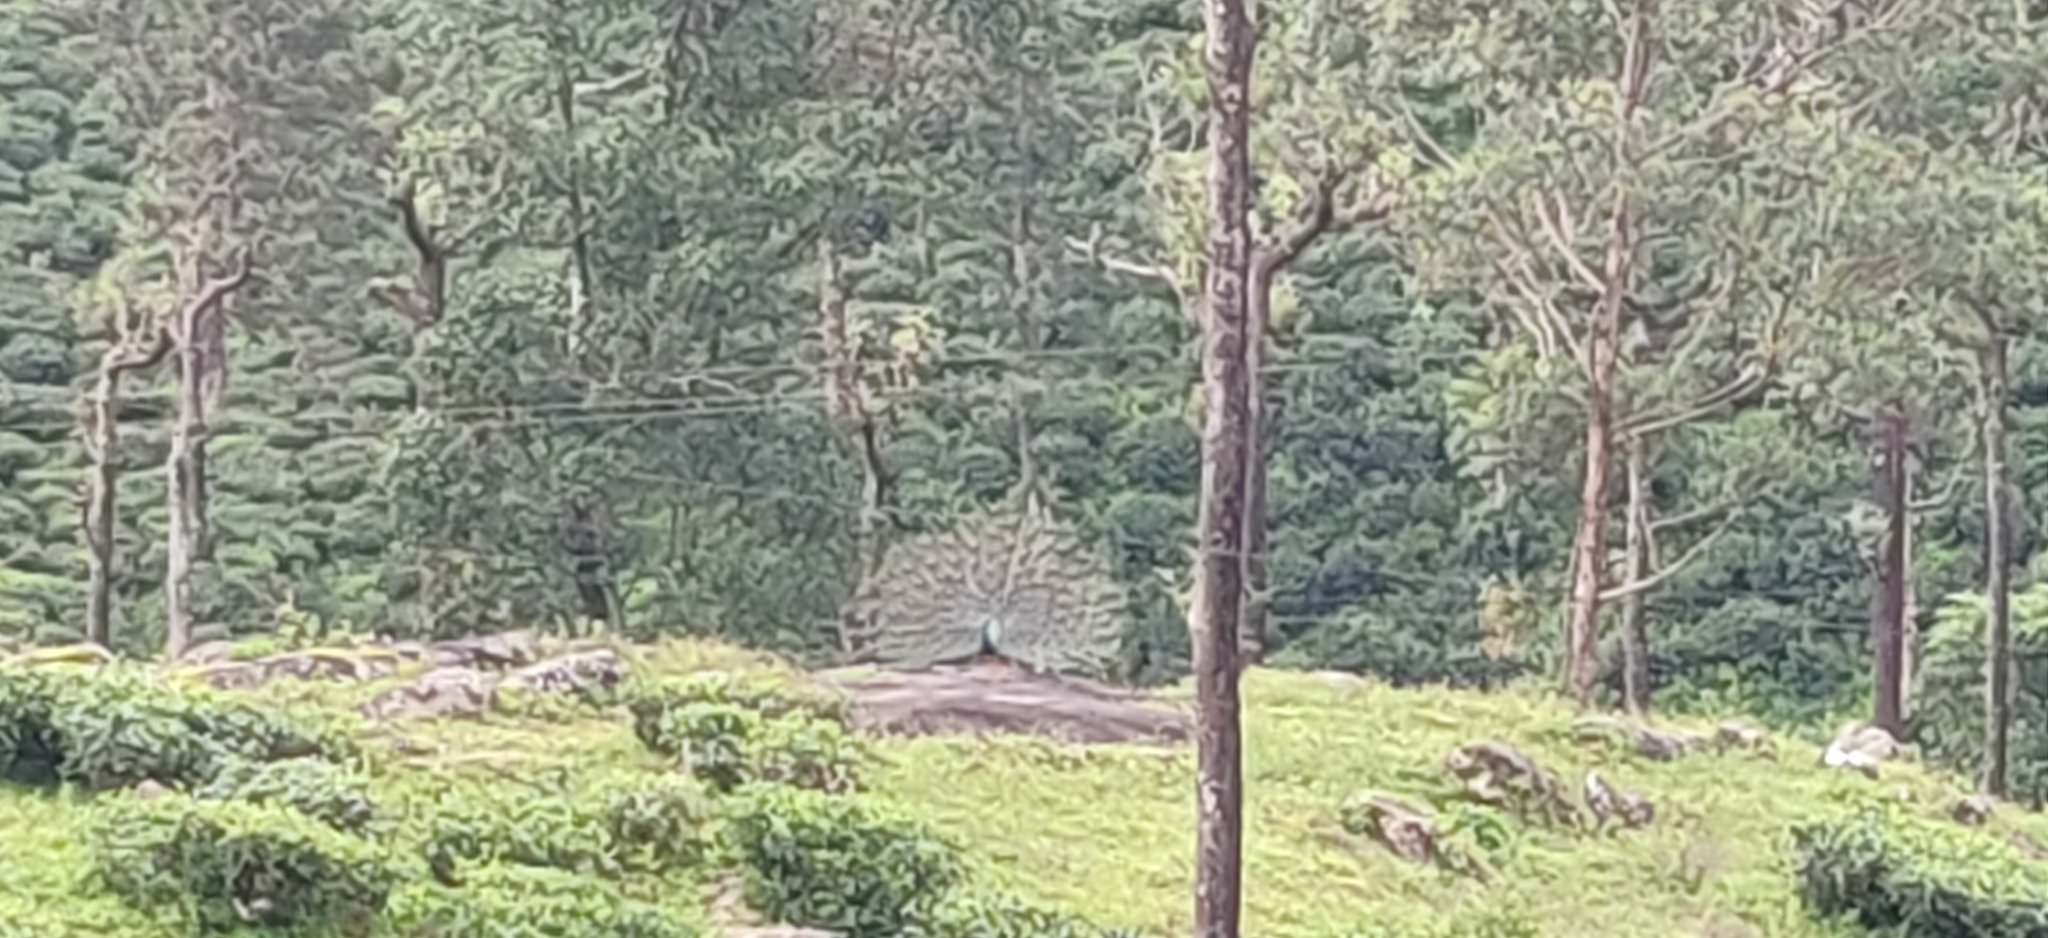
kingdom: Animalia
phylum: Chordata
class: Aves
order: Galliformes
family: Phasianidae
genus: Pavo
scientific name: Pavo cristatus
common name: Indian peafowl
